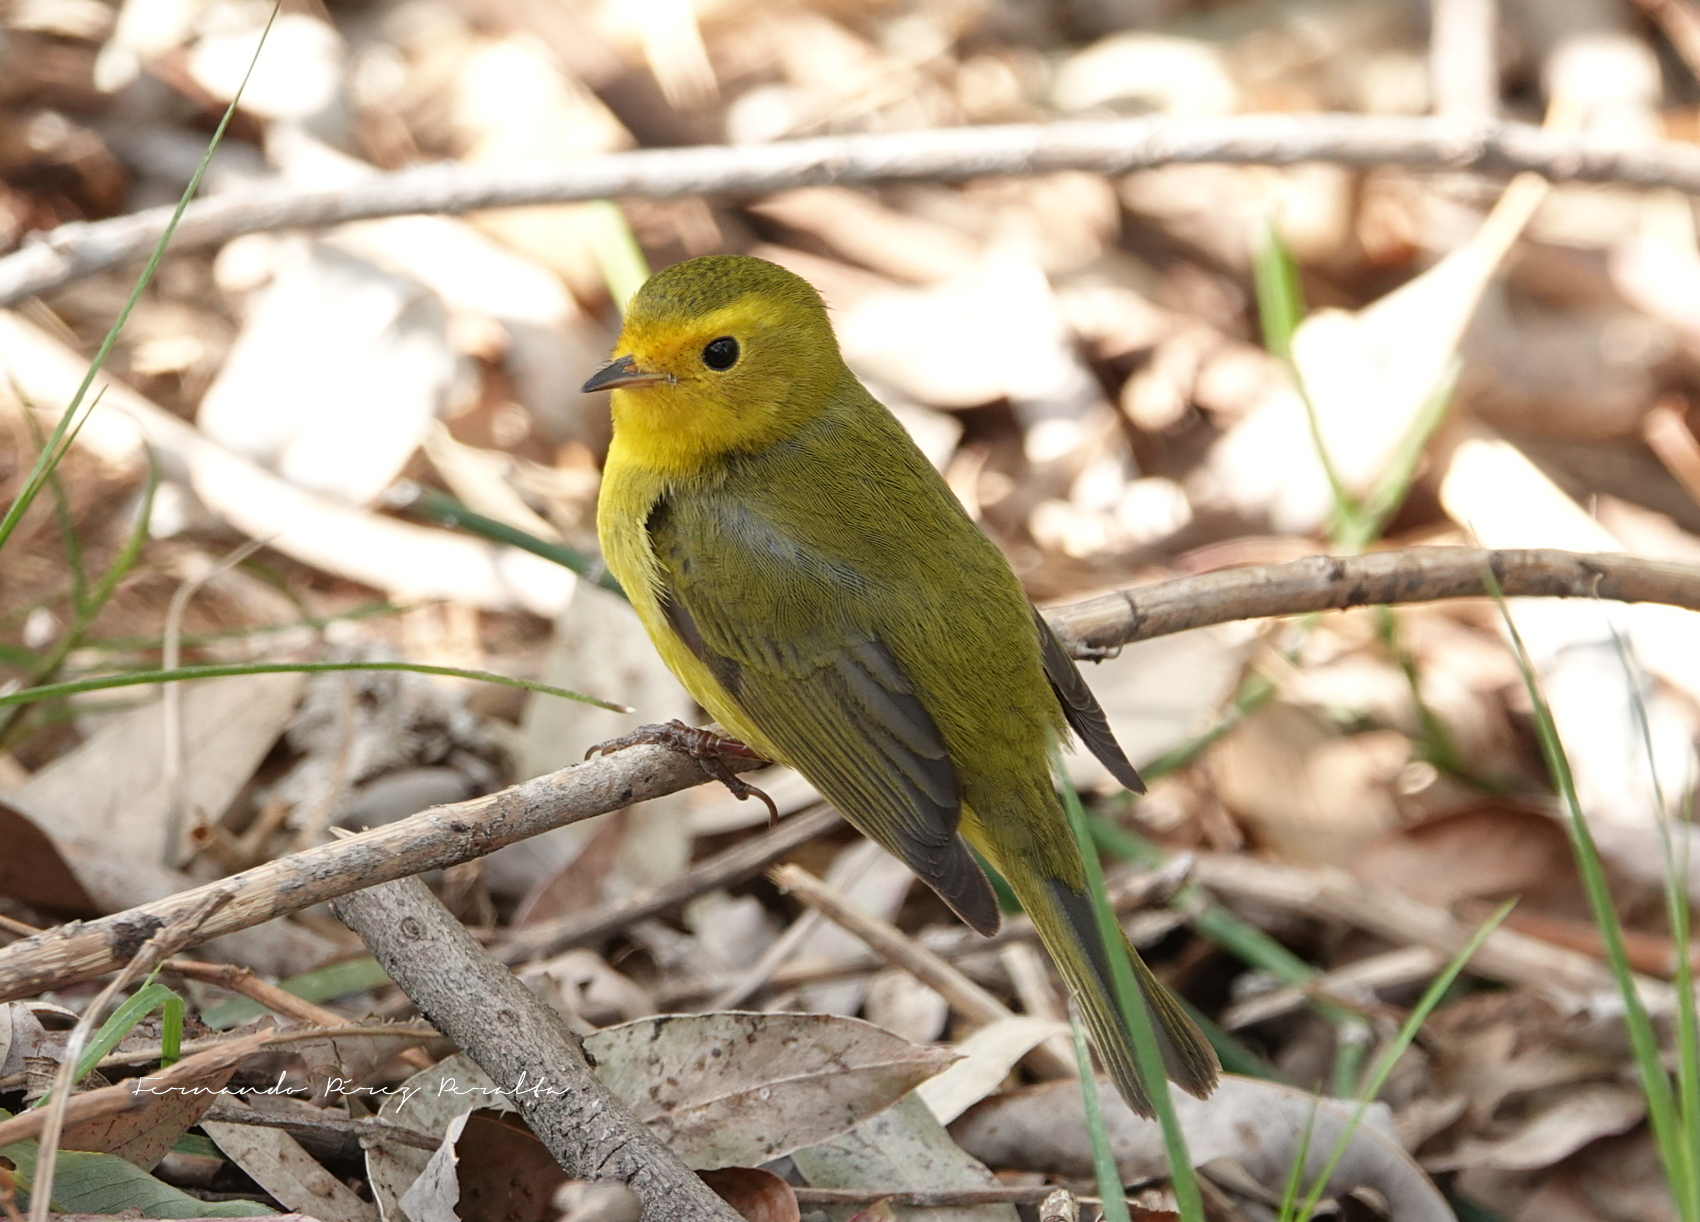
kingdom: Animalia
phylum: Chordata
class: Aves
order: Passeriformes
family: Parulidae
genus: Cardellina
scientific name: Cardellina pusilla
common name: Wilson's warbler
